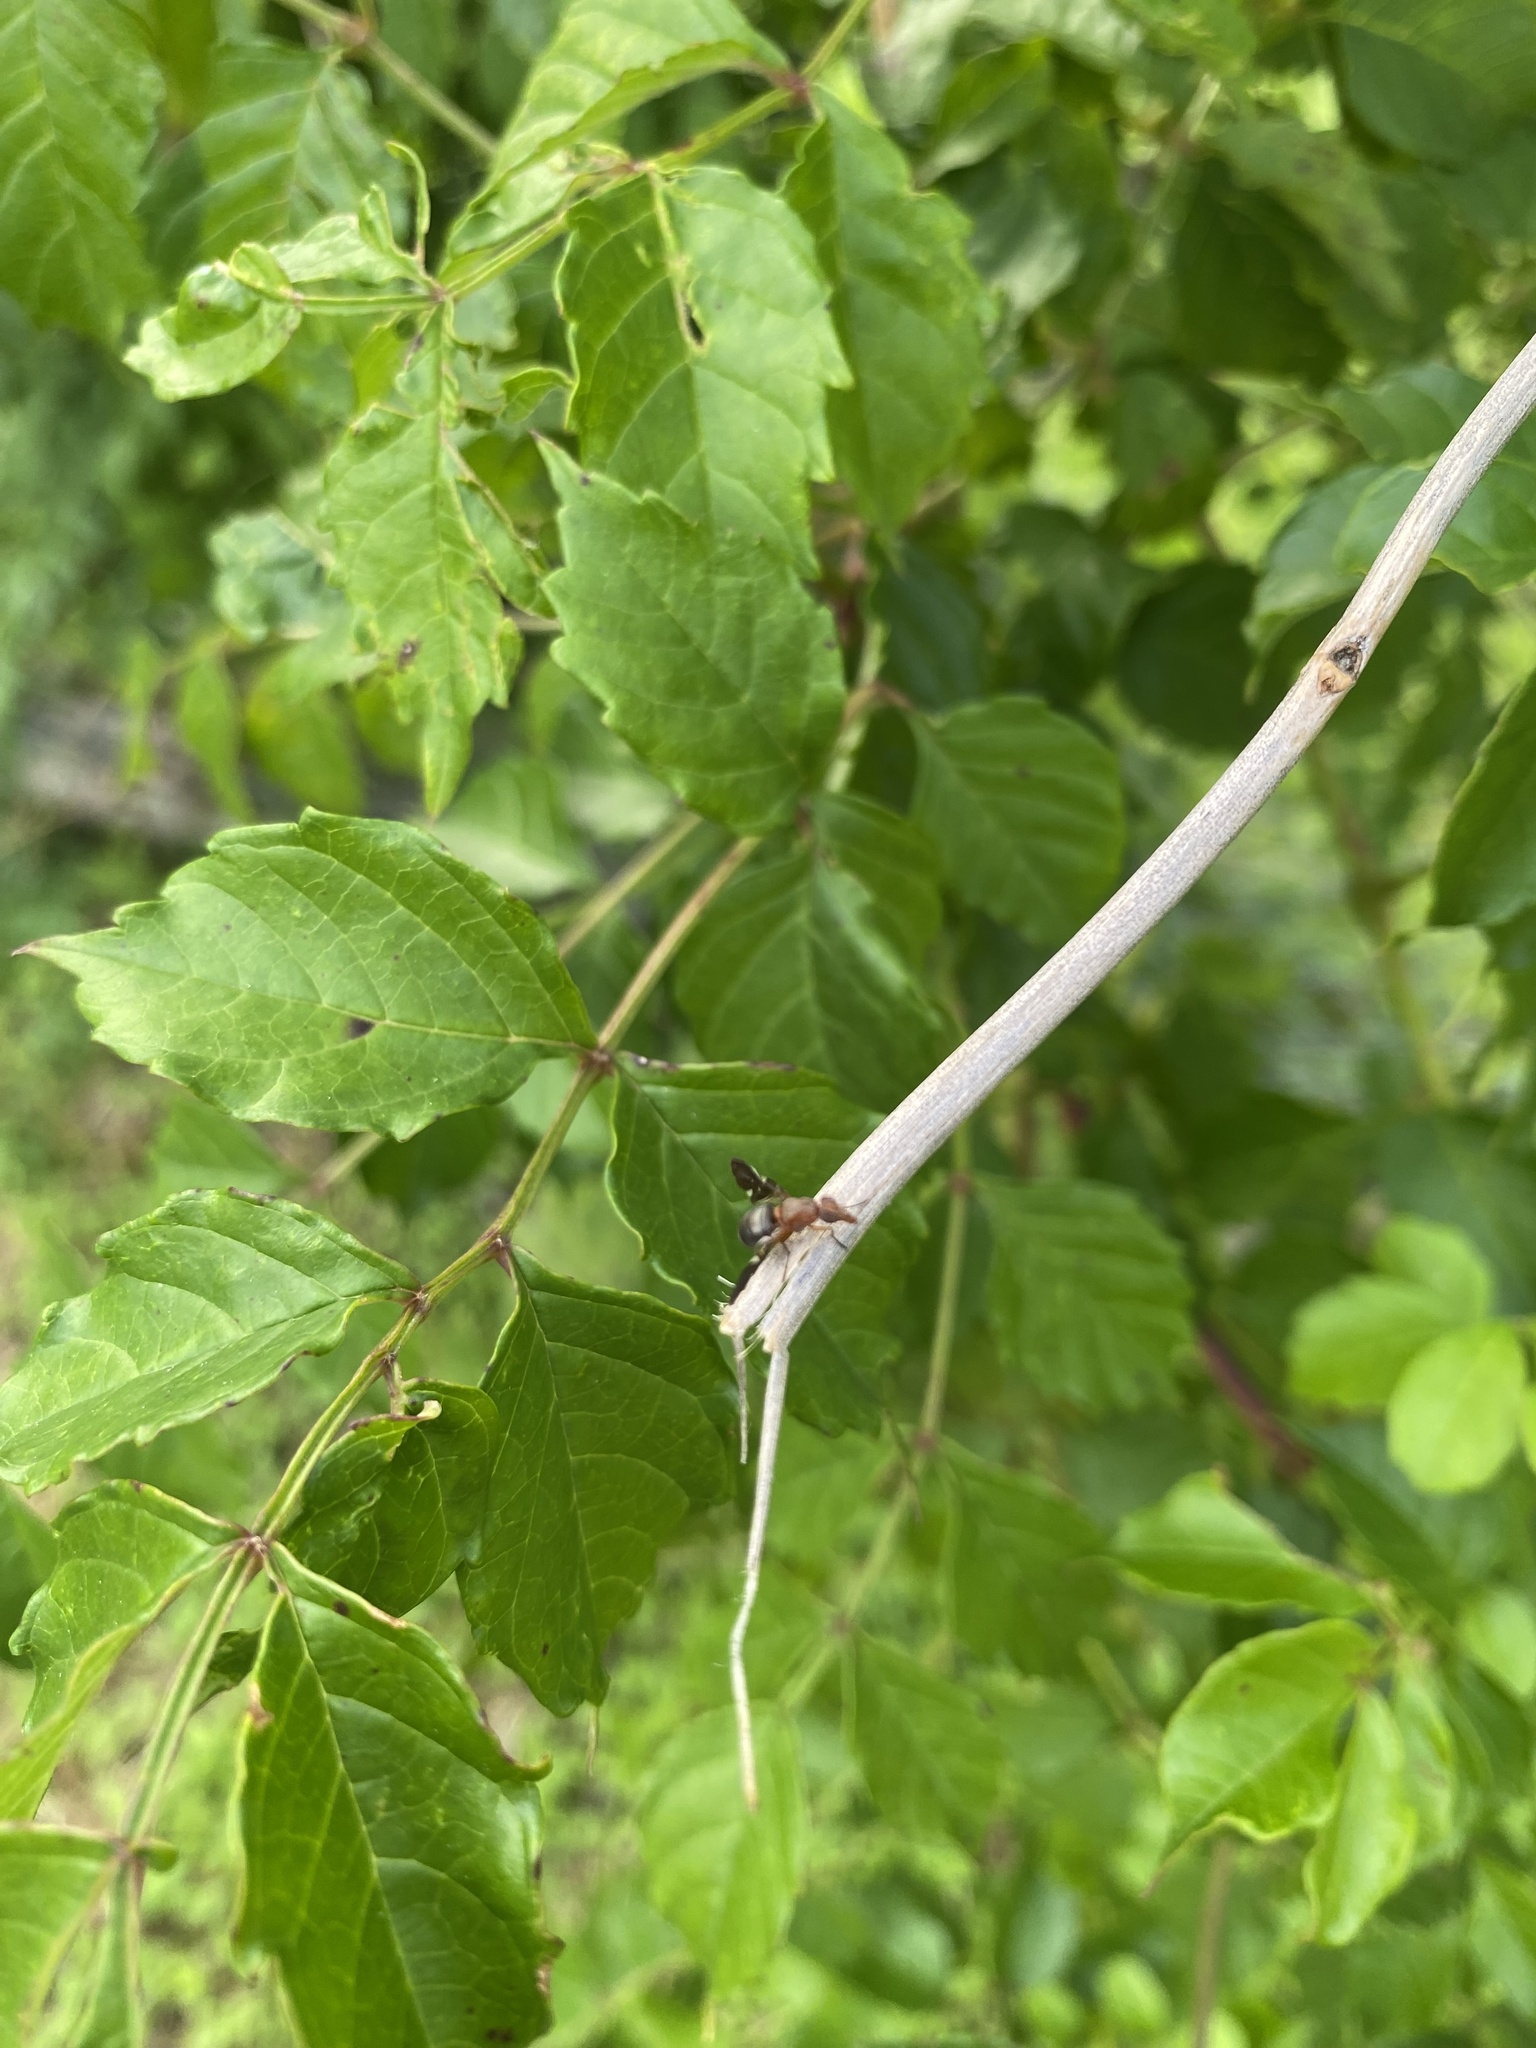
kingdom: Animalia
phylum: Arthropoda
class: Insecta
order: Diptera
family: Ulidiidae
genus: Delphinia
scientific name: Delphinia picta
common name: Common picture-winged fly
